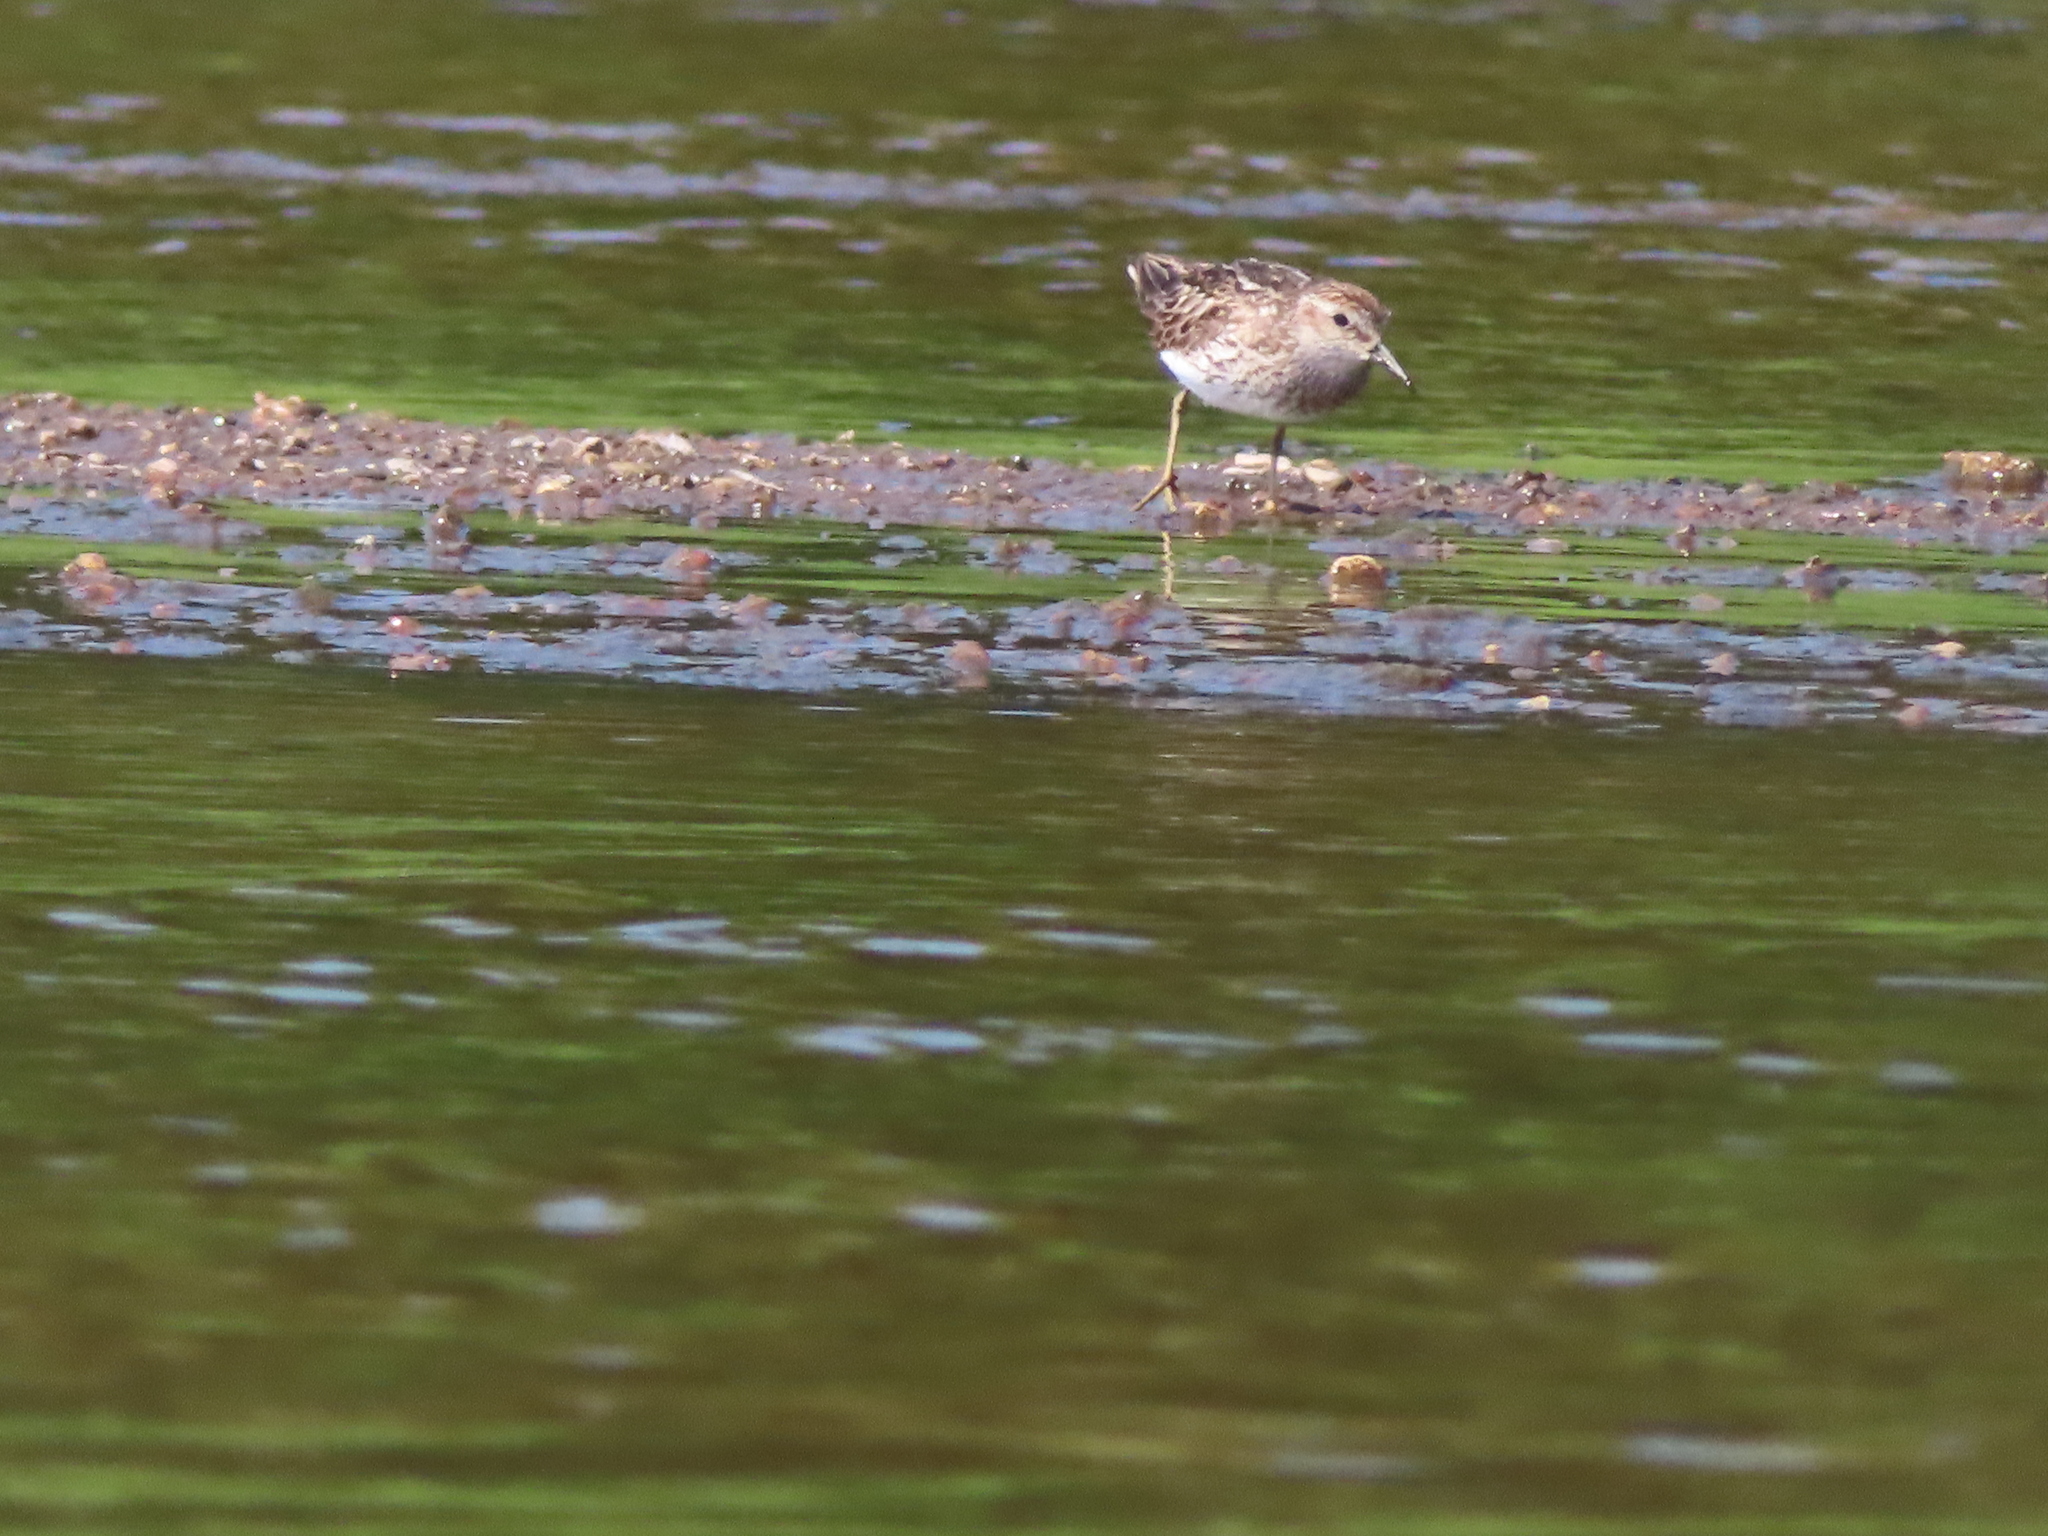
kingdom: Animalia
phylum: Chordata
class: Aves
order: Charadriiformes
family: Scolopacidae
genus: Calidris
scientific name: Calidris minutilla
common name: Least sandpiper
